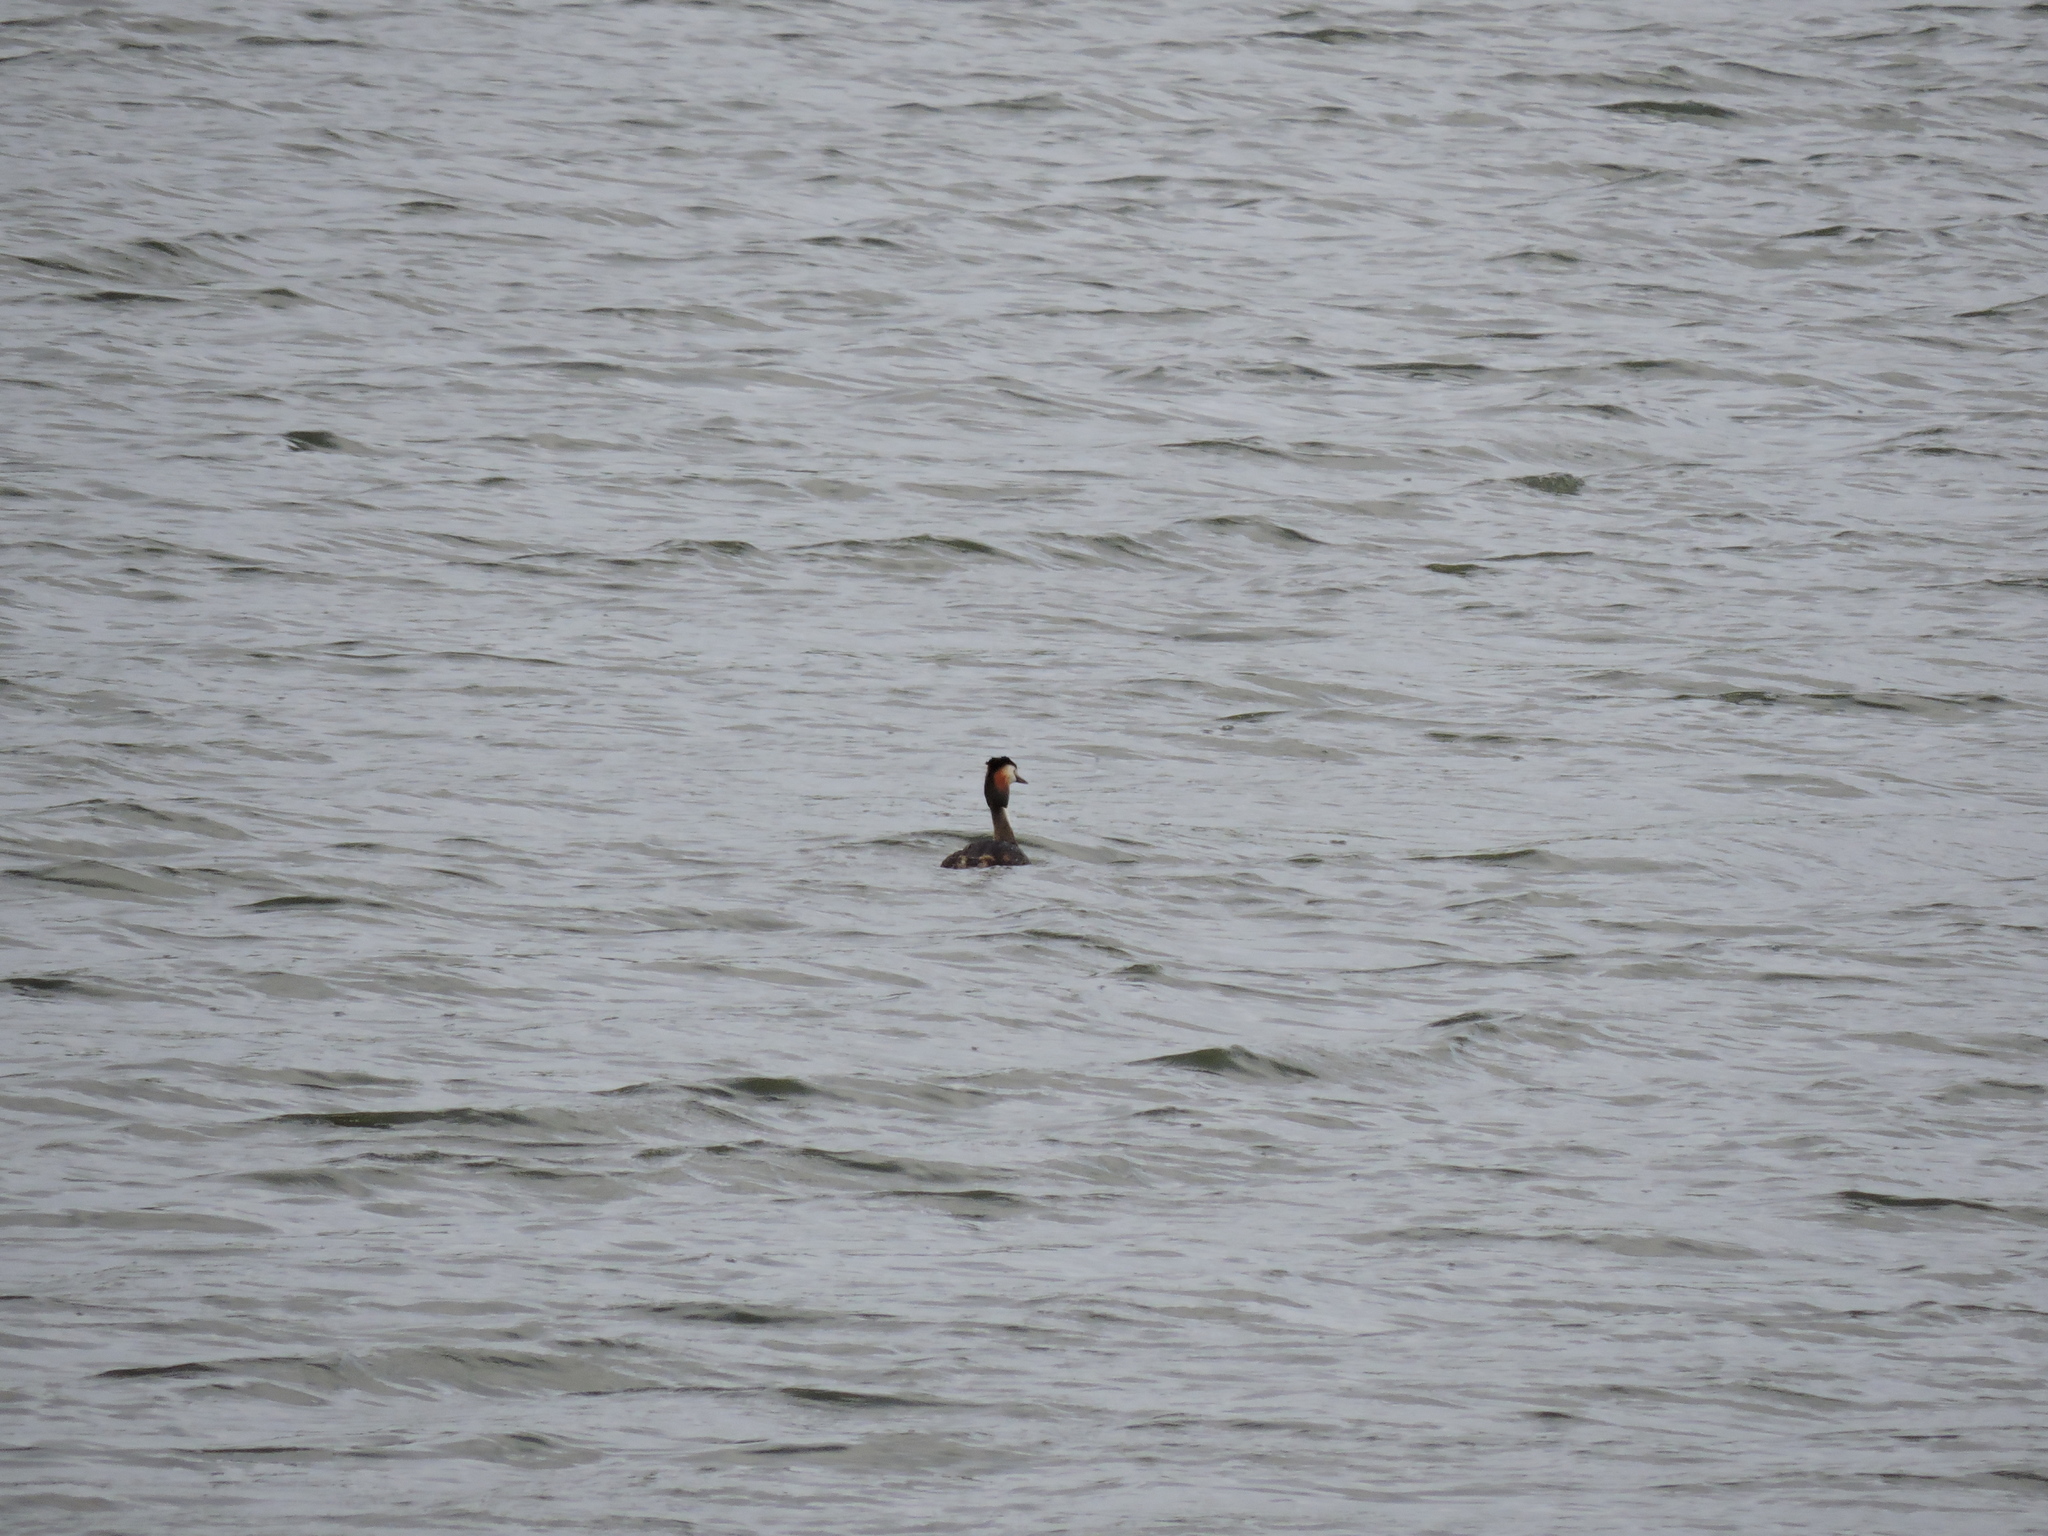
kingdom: Animalia
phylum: Chordata
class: Aves
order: Podicipediformes
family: Podicipedidae
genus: Podiceps
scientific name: Podiceps cristatus
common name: Great crested grebe
